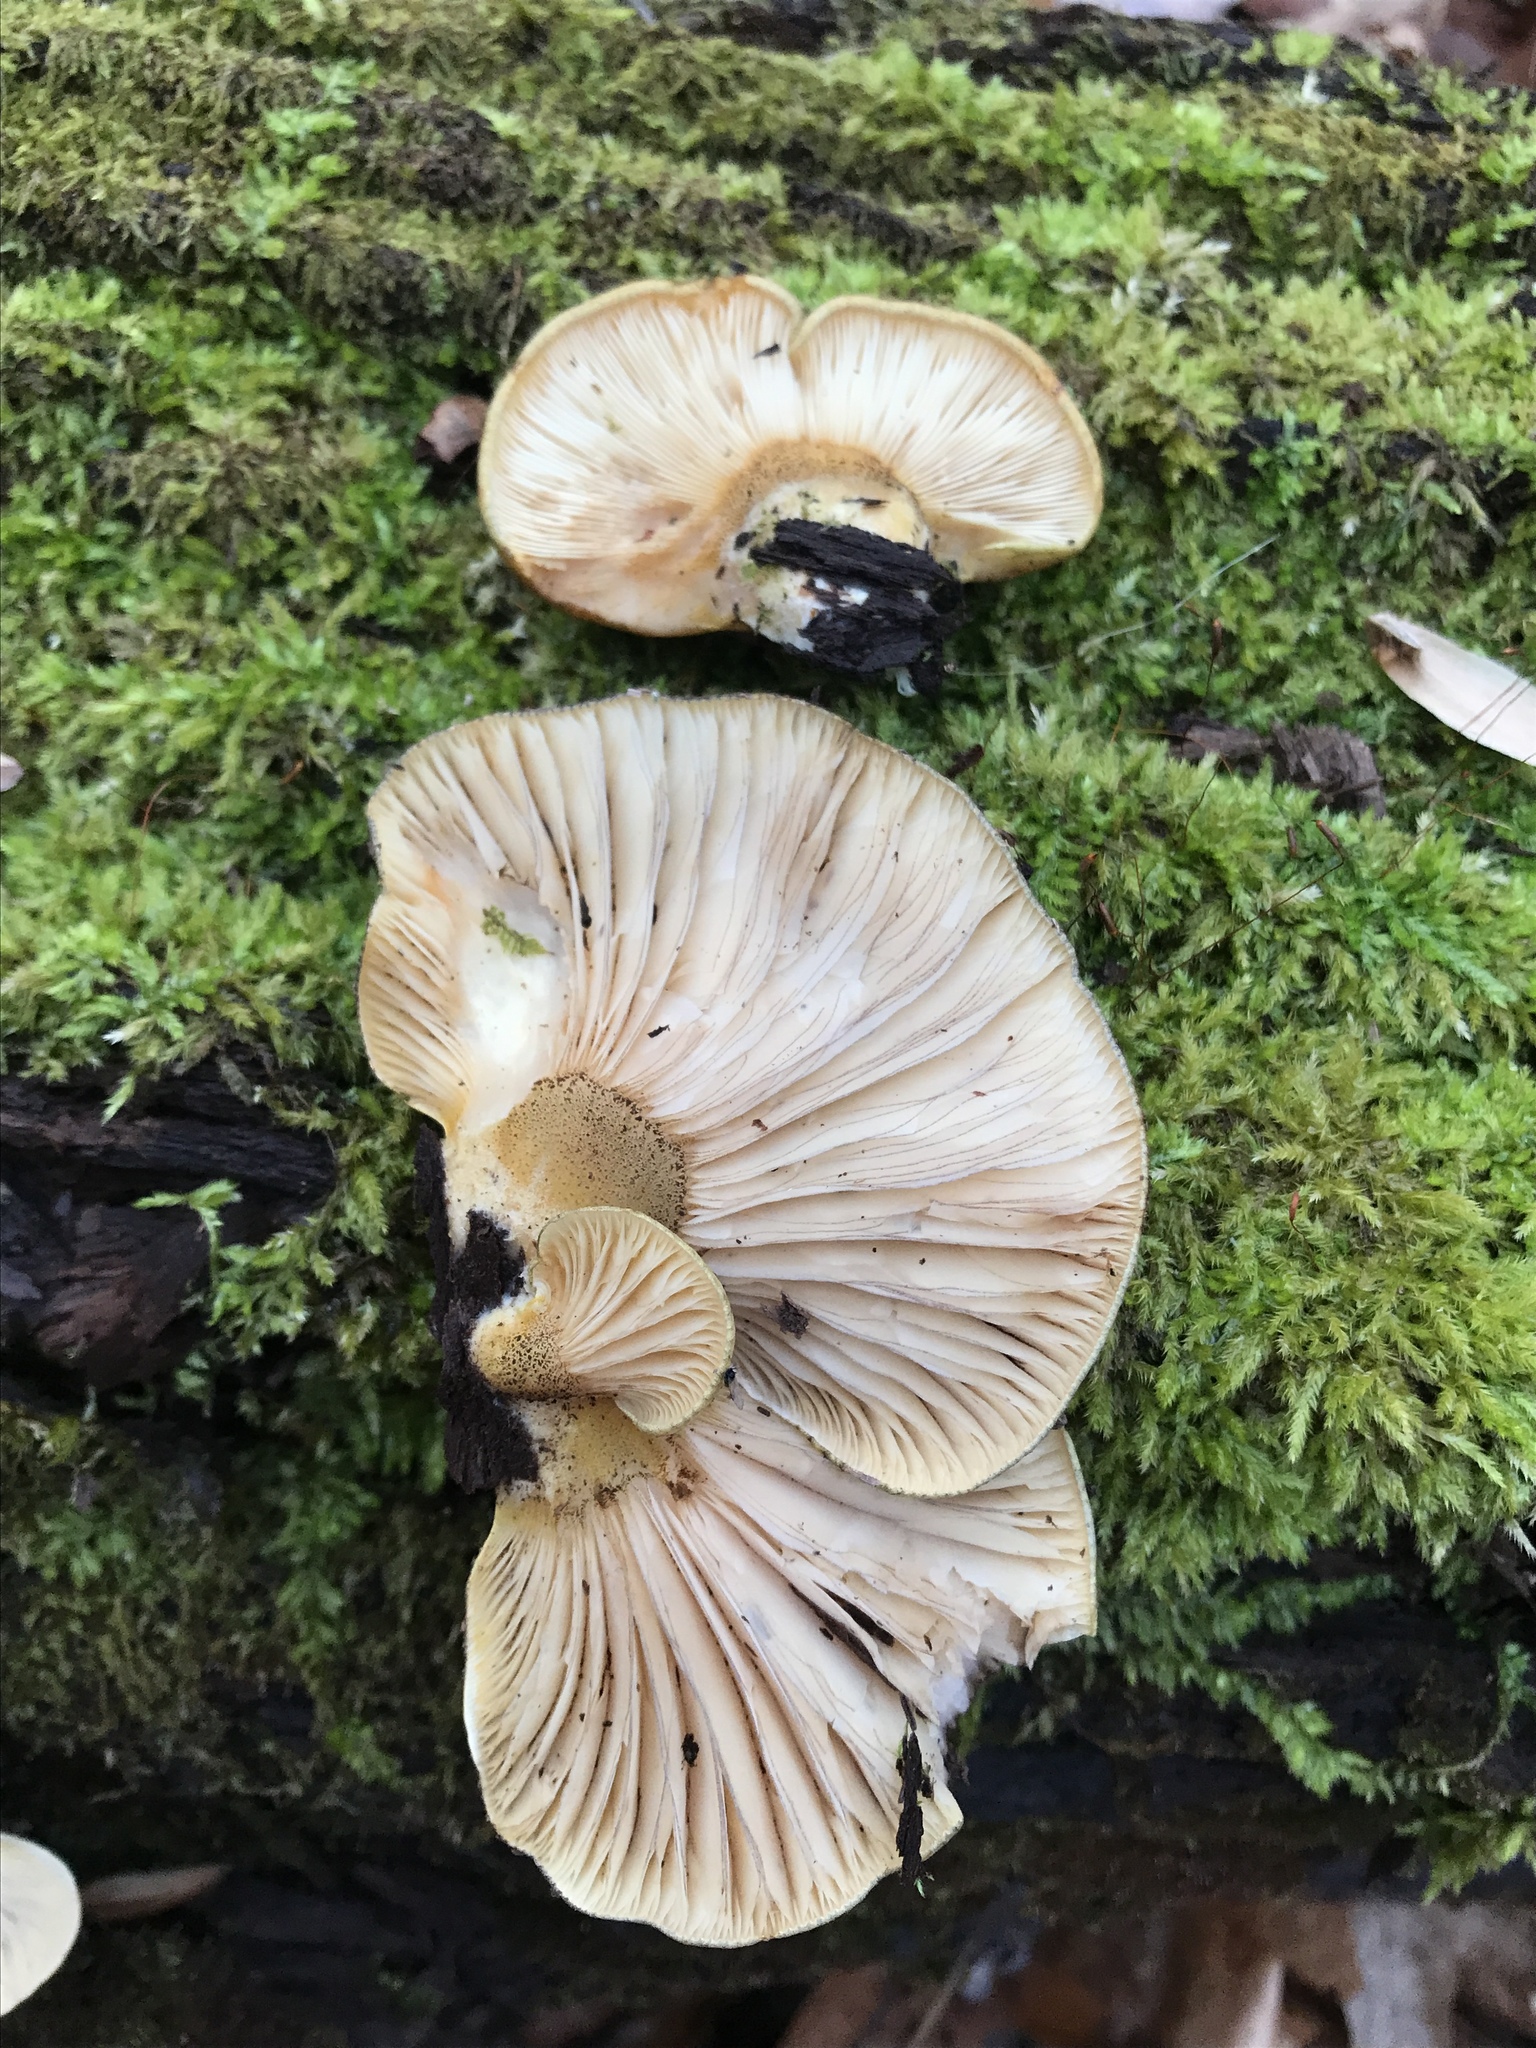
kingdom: Fungi
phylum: Basidiomycota
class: Agaricomycetes
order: Agaricales
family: Sarcomyxaceae
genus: Sarcomyxa
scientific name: Sarcomyxa serotina
